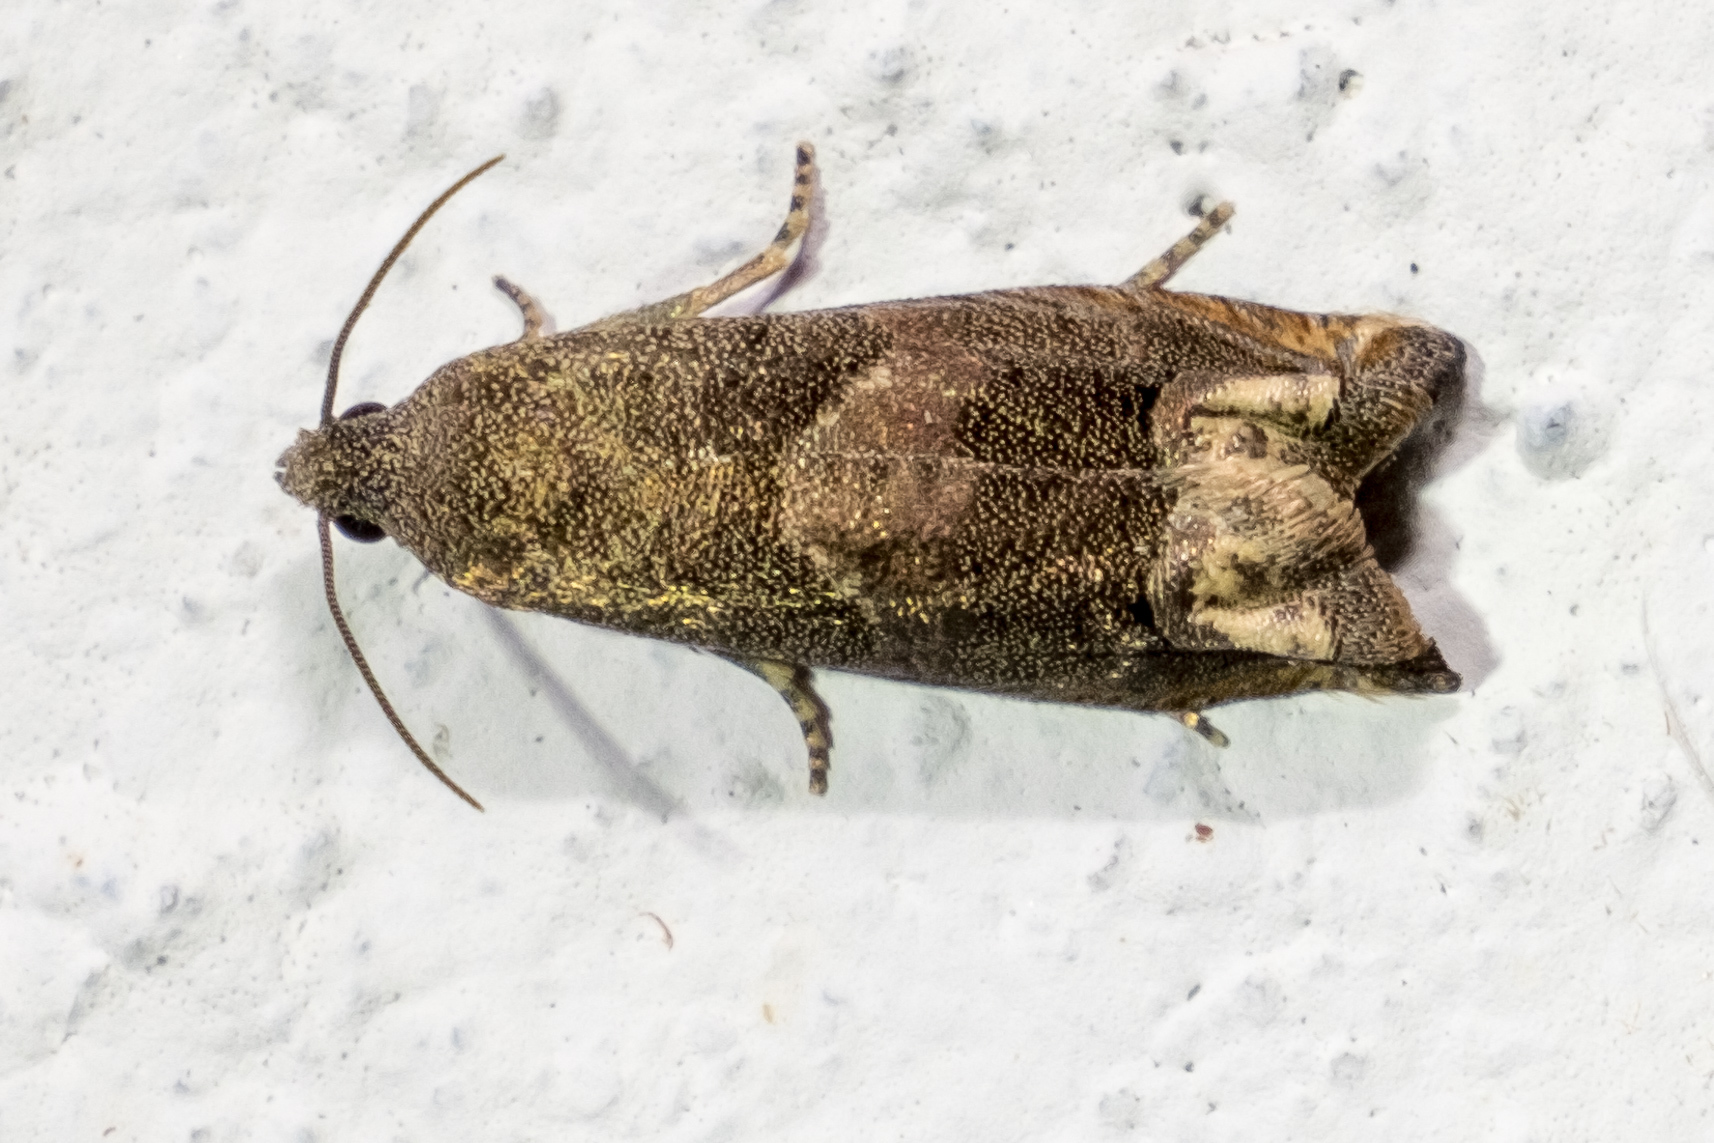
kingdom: Animalia
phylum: Arthropoda
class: Insecta
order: Lepidoptera
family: Tortricidae
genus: Epiblema
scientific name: Epiblema strenuana
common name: Ragweed borer moth
